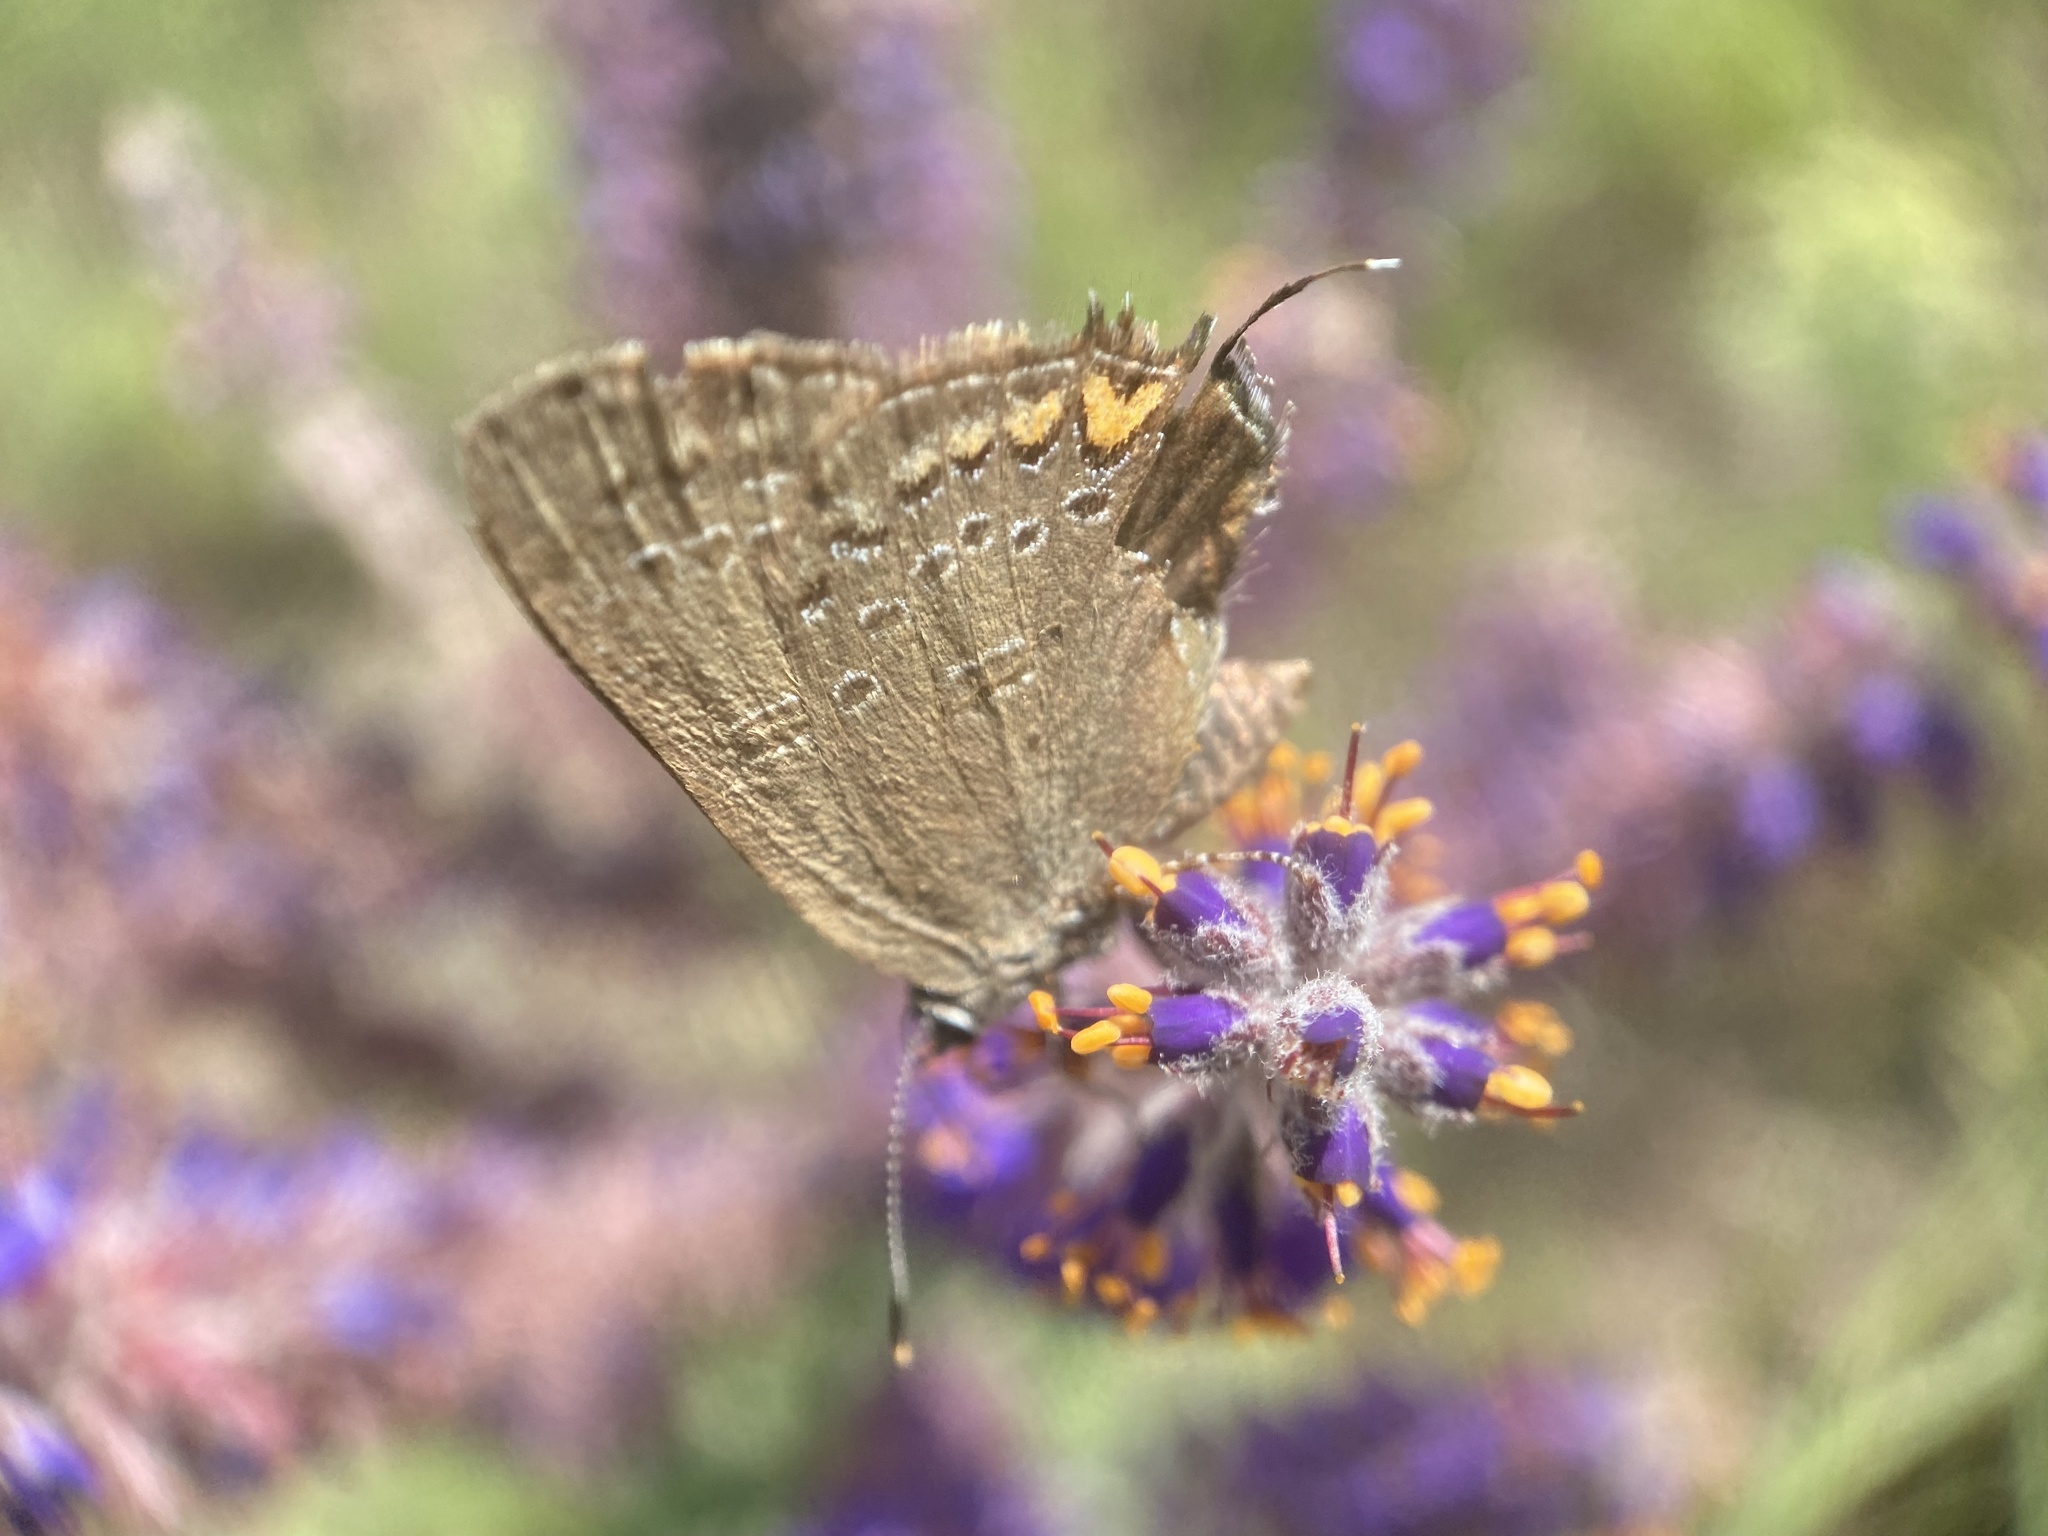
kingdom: Animalia
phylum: Arthropoda
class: Insecta
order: Lepidoptera
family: Lycaenidae
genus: Satyrium
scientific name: Satyrium edwardsii
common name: Edwards' hairstreak
